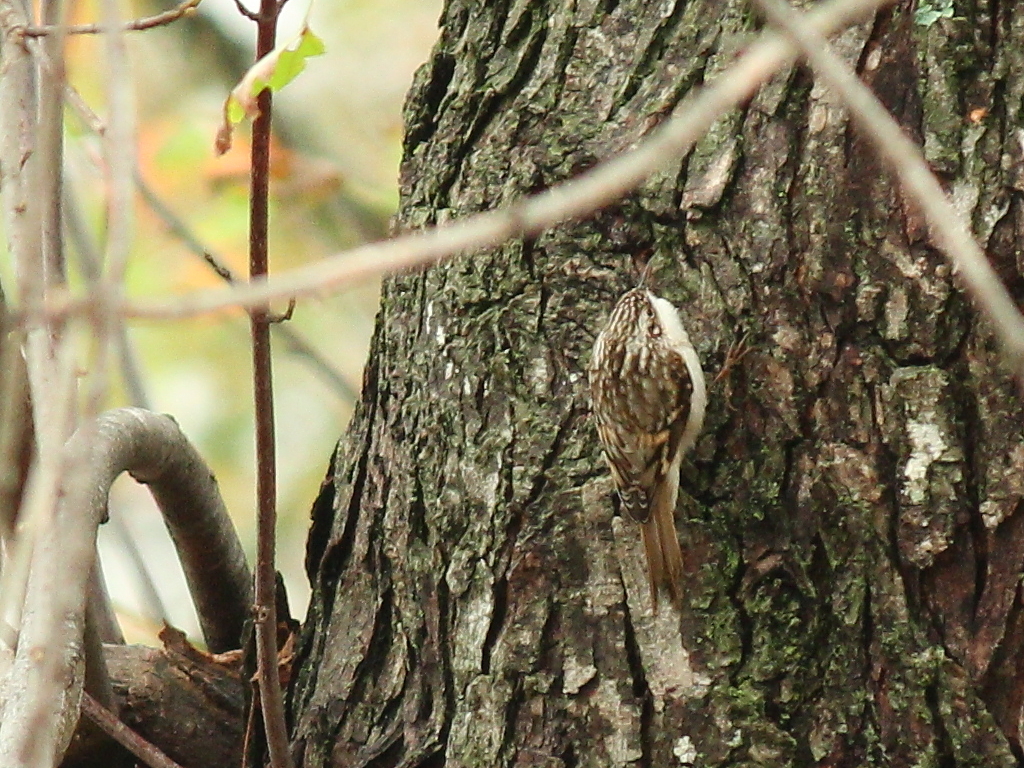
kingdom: Animalia
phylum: Chordata
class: Aves
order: Passeriformes
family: Certhiidae
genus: Certhia
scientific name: Certhia americana
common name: Brown creeper
